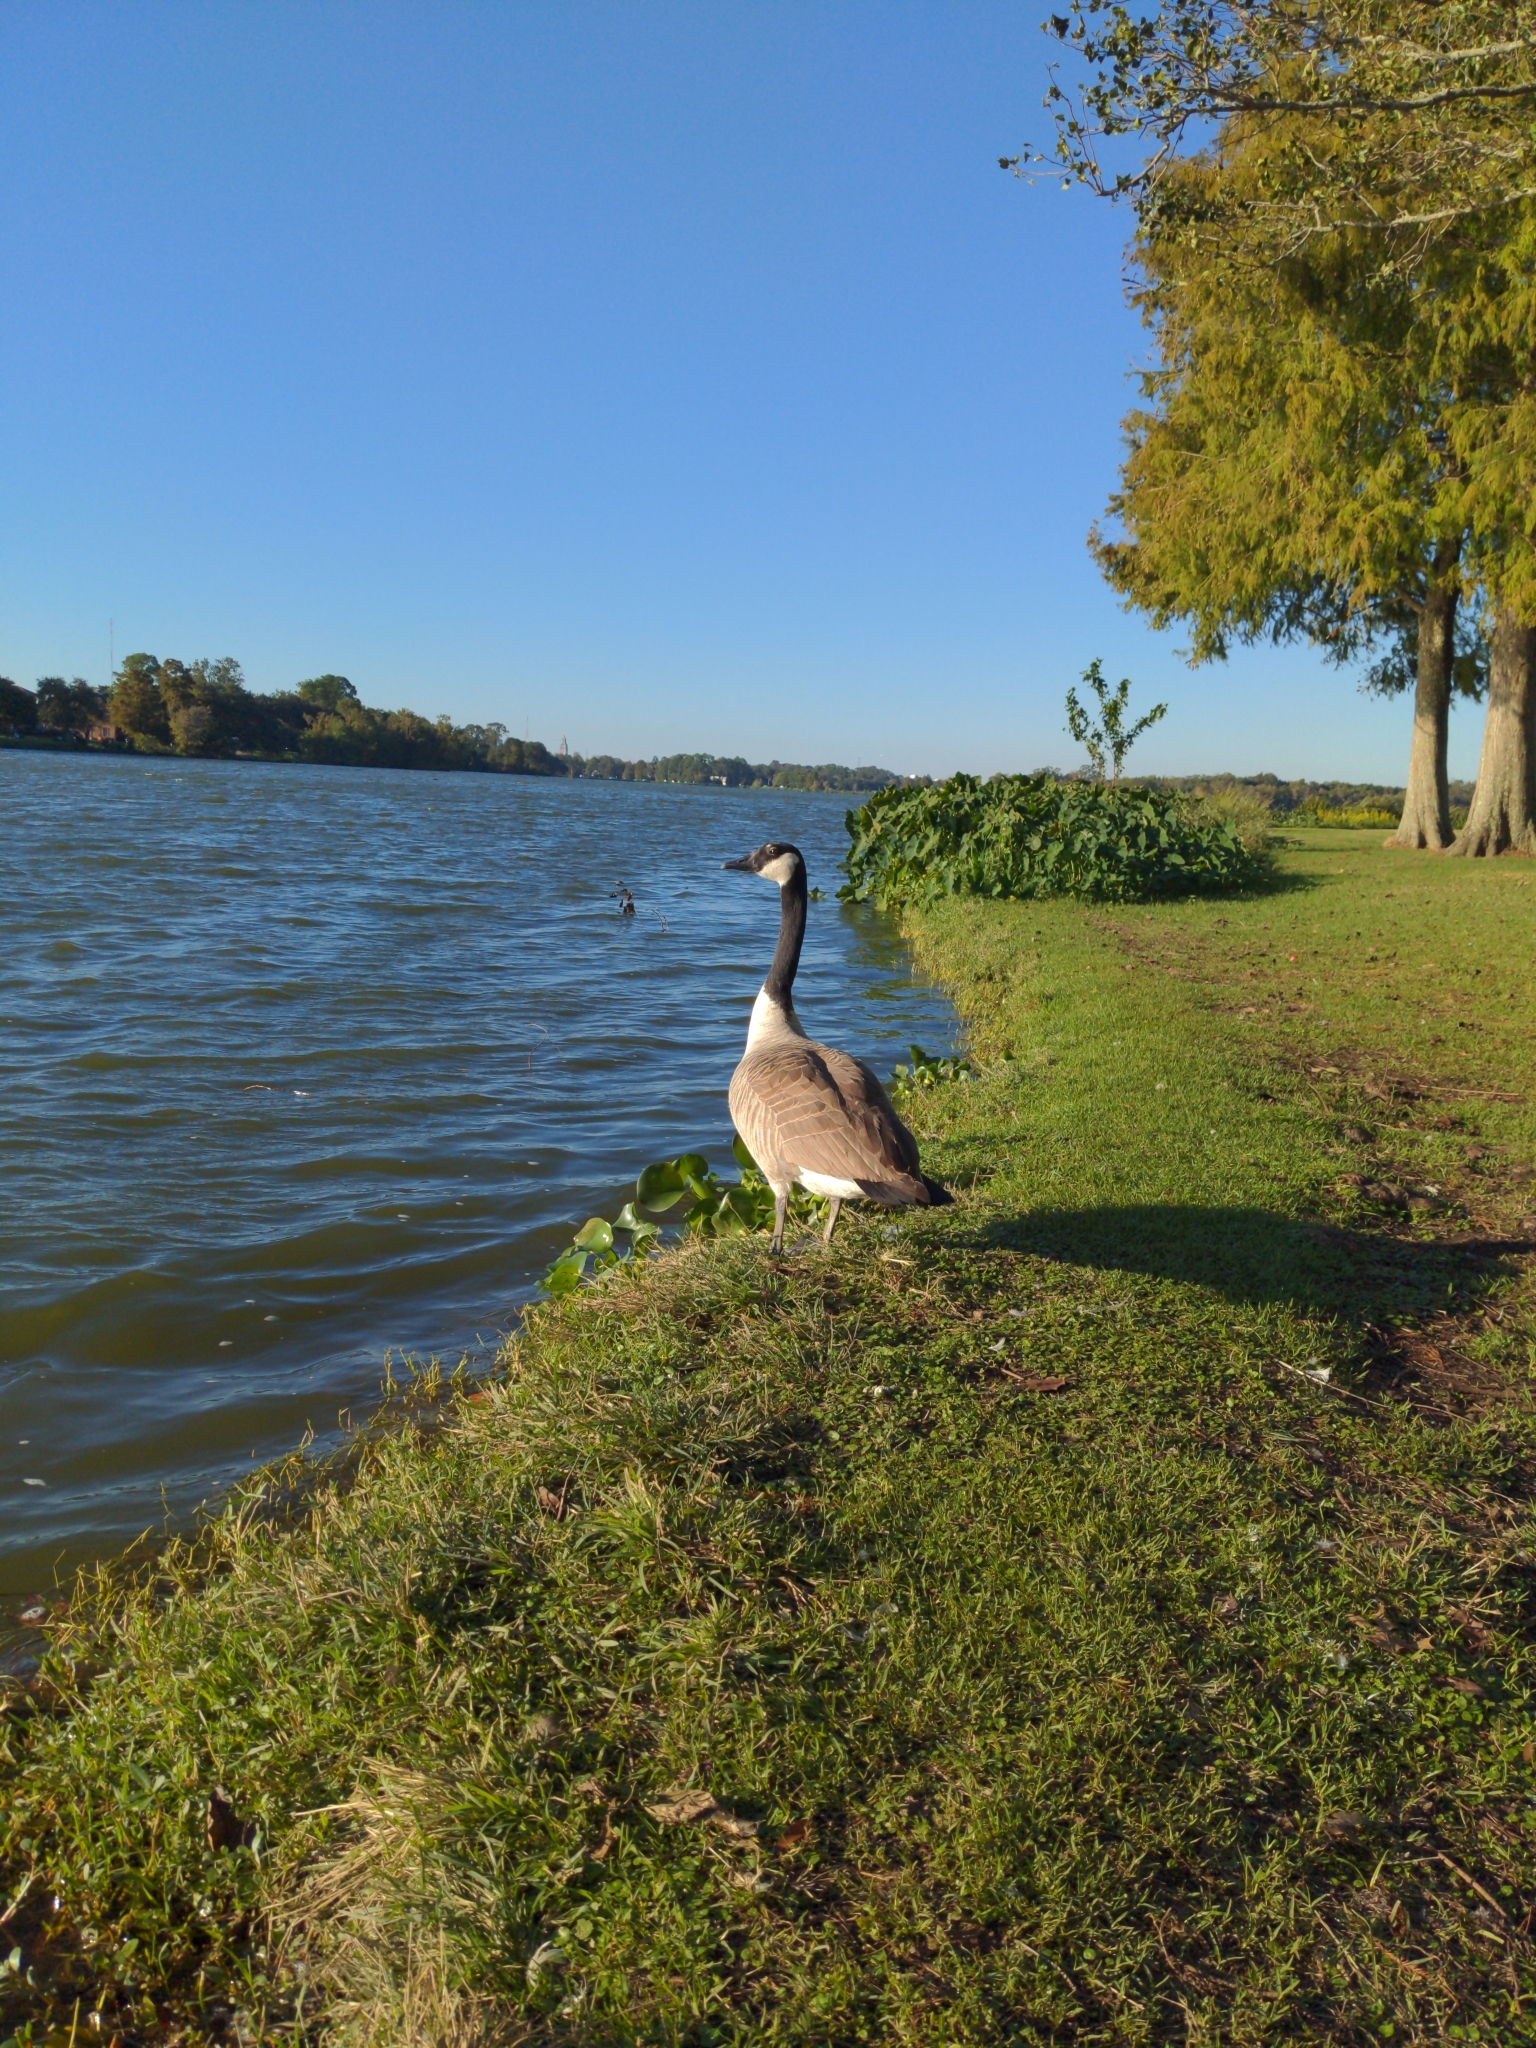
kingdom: Animalia
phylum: Chordata
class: Aves
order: Anseriformes
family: Anatidae
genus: Branta
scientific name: Branta canadensis
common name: Canada goose
